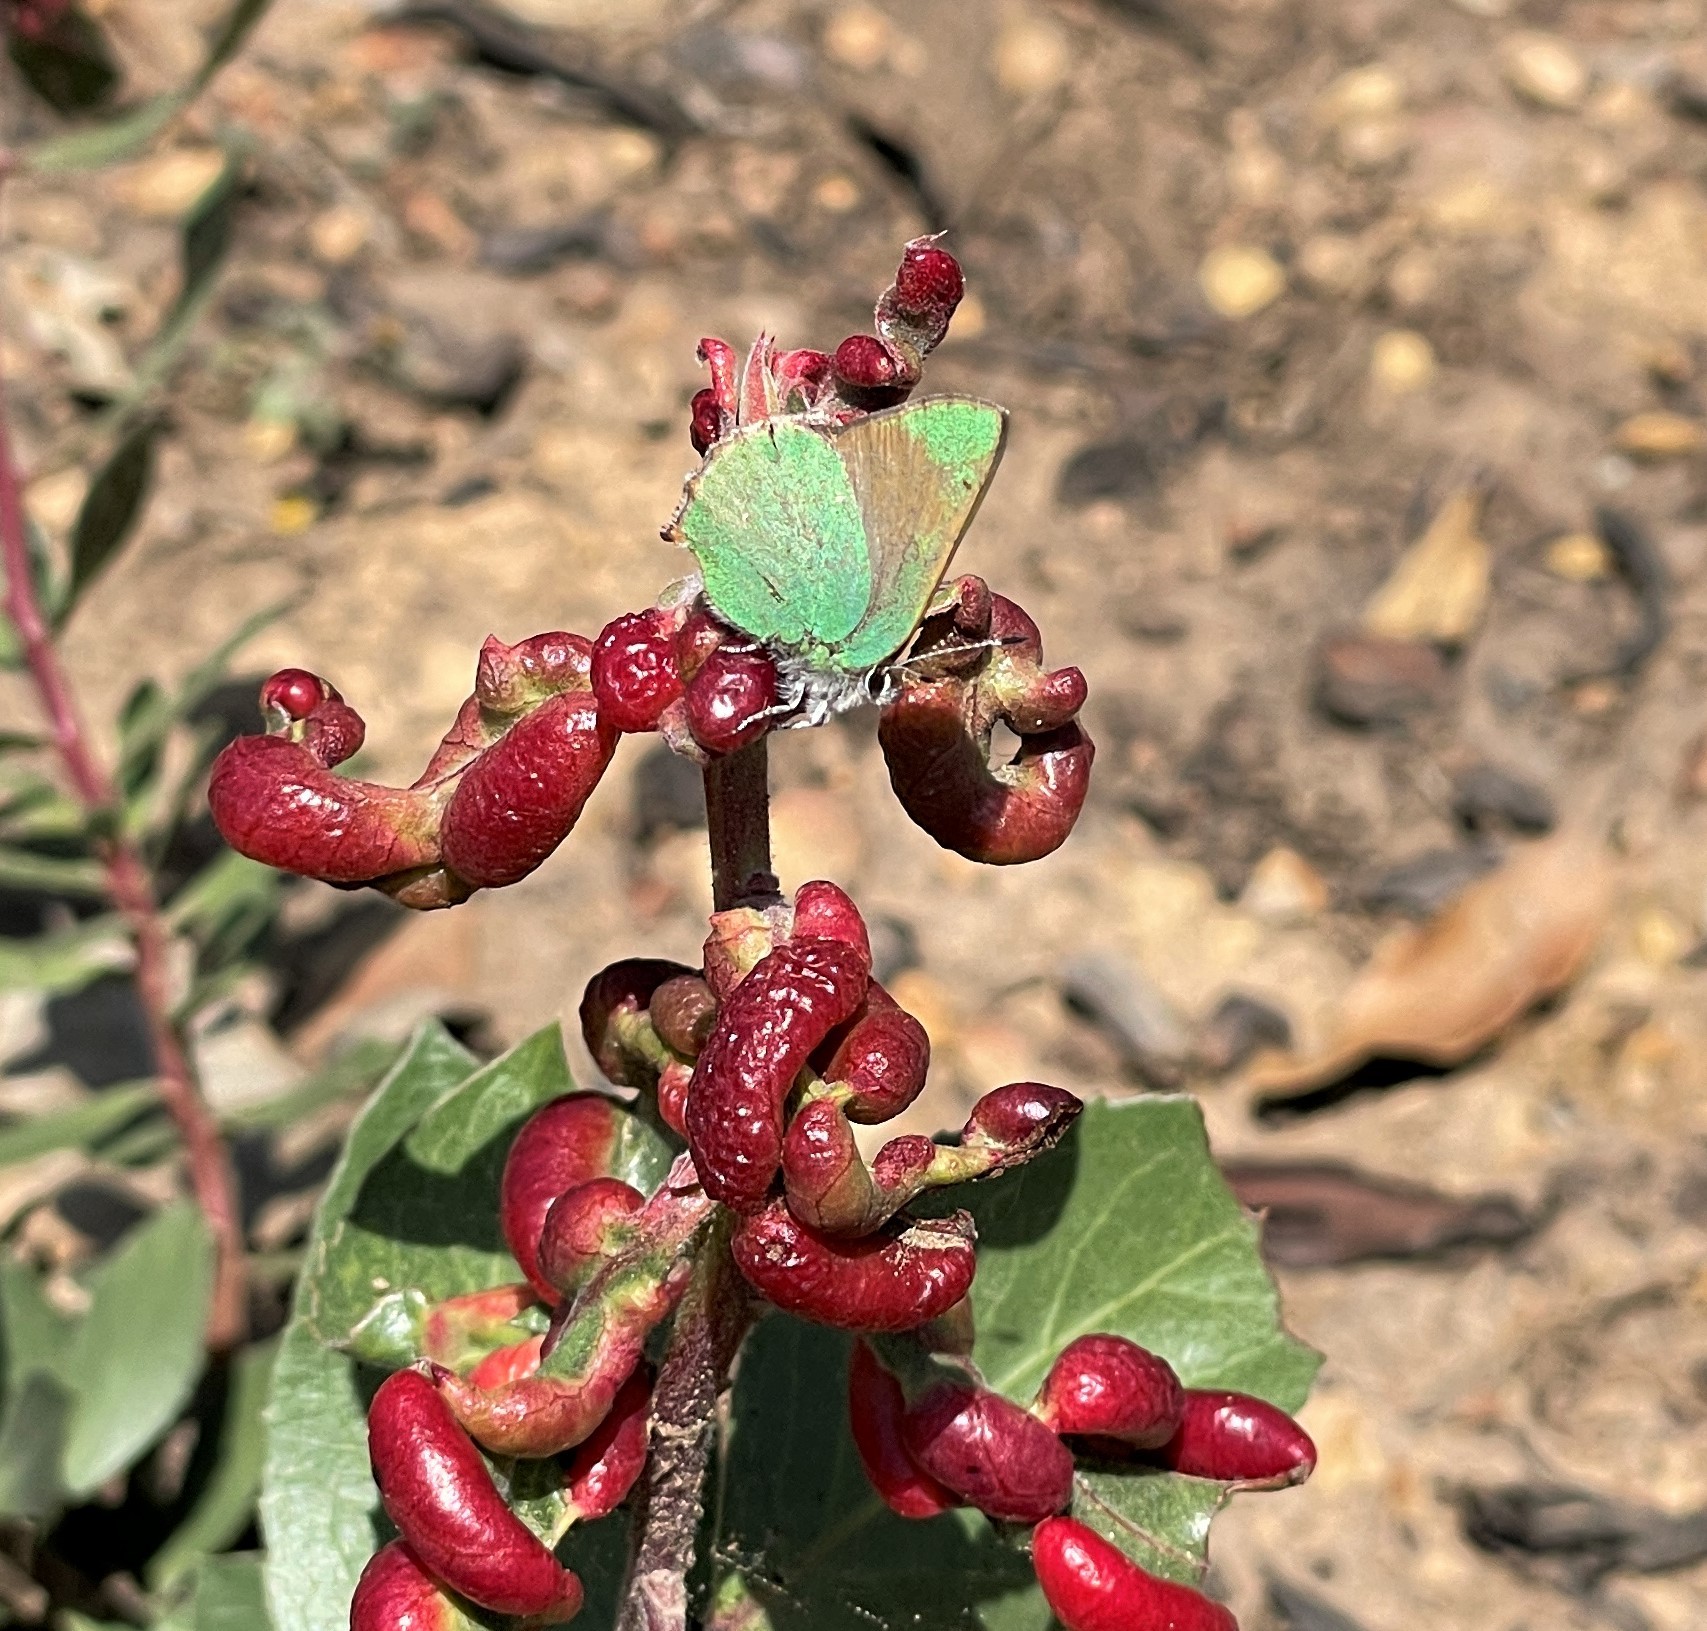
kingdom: Animalia
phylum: Arthropoda
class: Insecta
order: Lepidoptera
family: Lycaenidae
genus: Callophrys
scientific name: Callophrys dumetorum
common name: Bramble hairstreak
